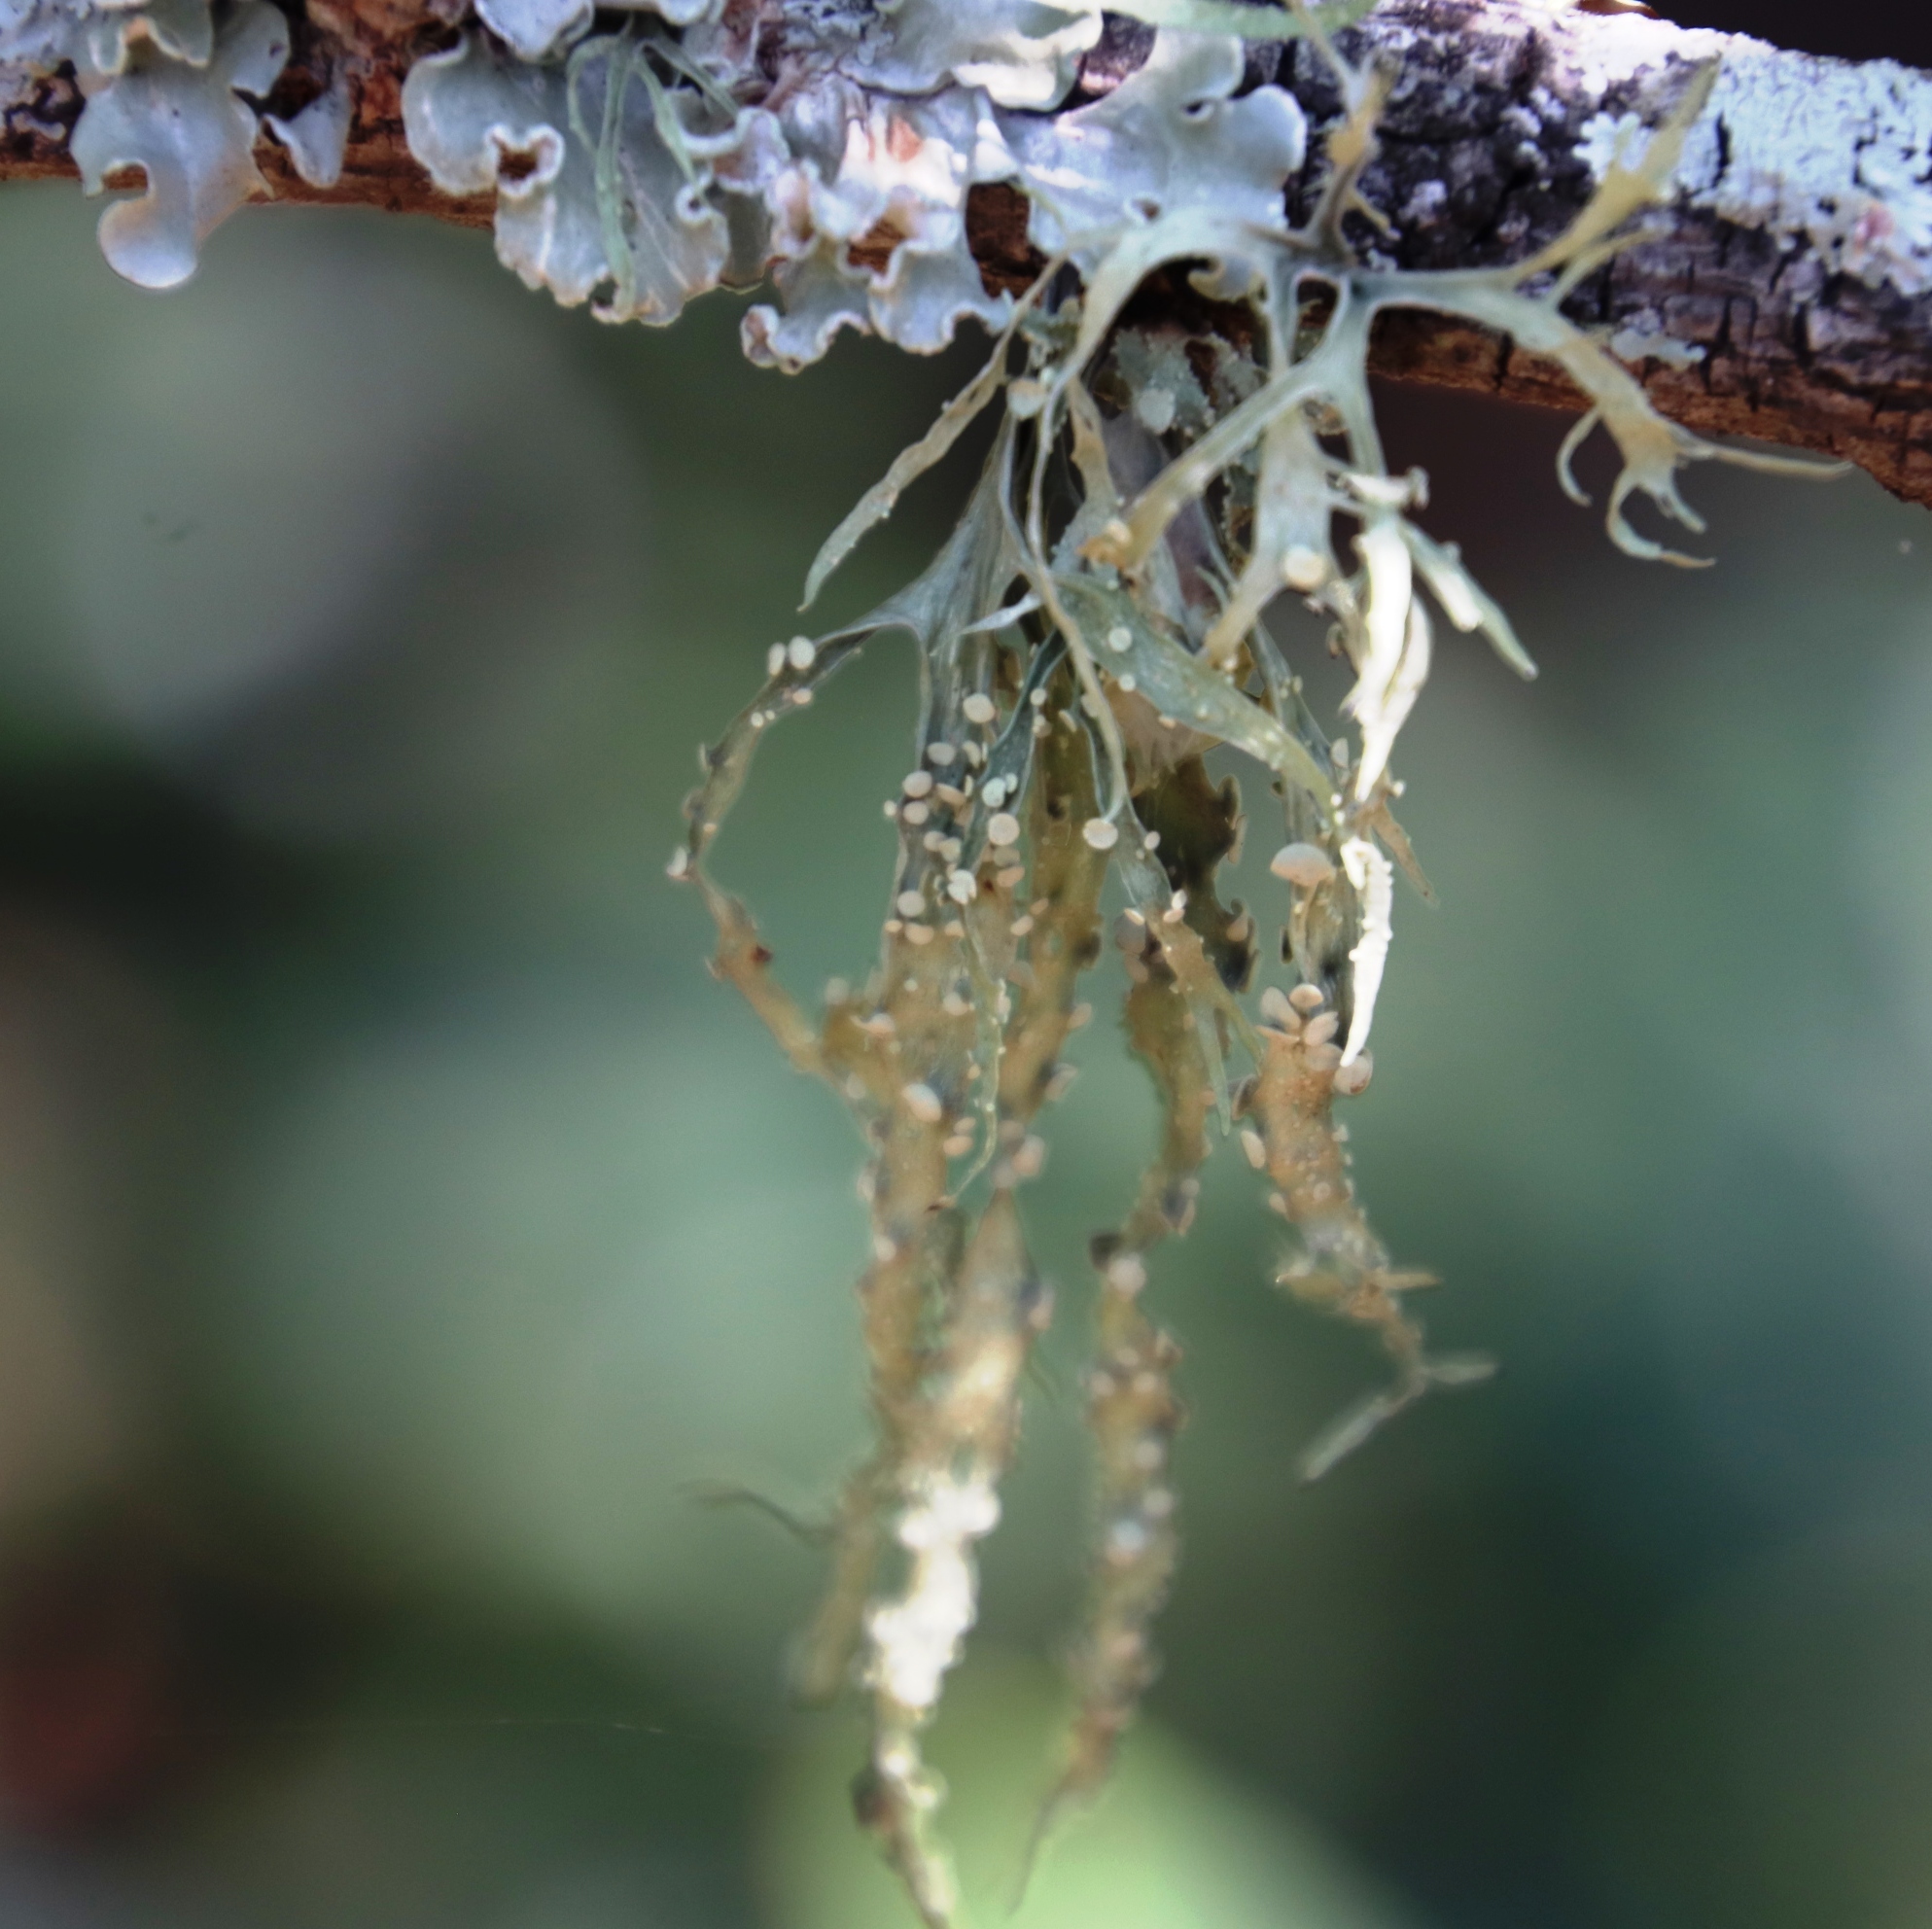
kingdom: Fungi
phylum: Ascomycota
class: Lecanoromycetes
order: Lecanorales
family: Ramalinaceae
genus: Ramalina
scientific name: Ramalina celastri
